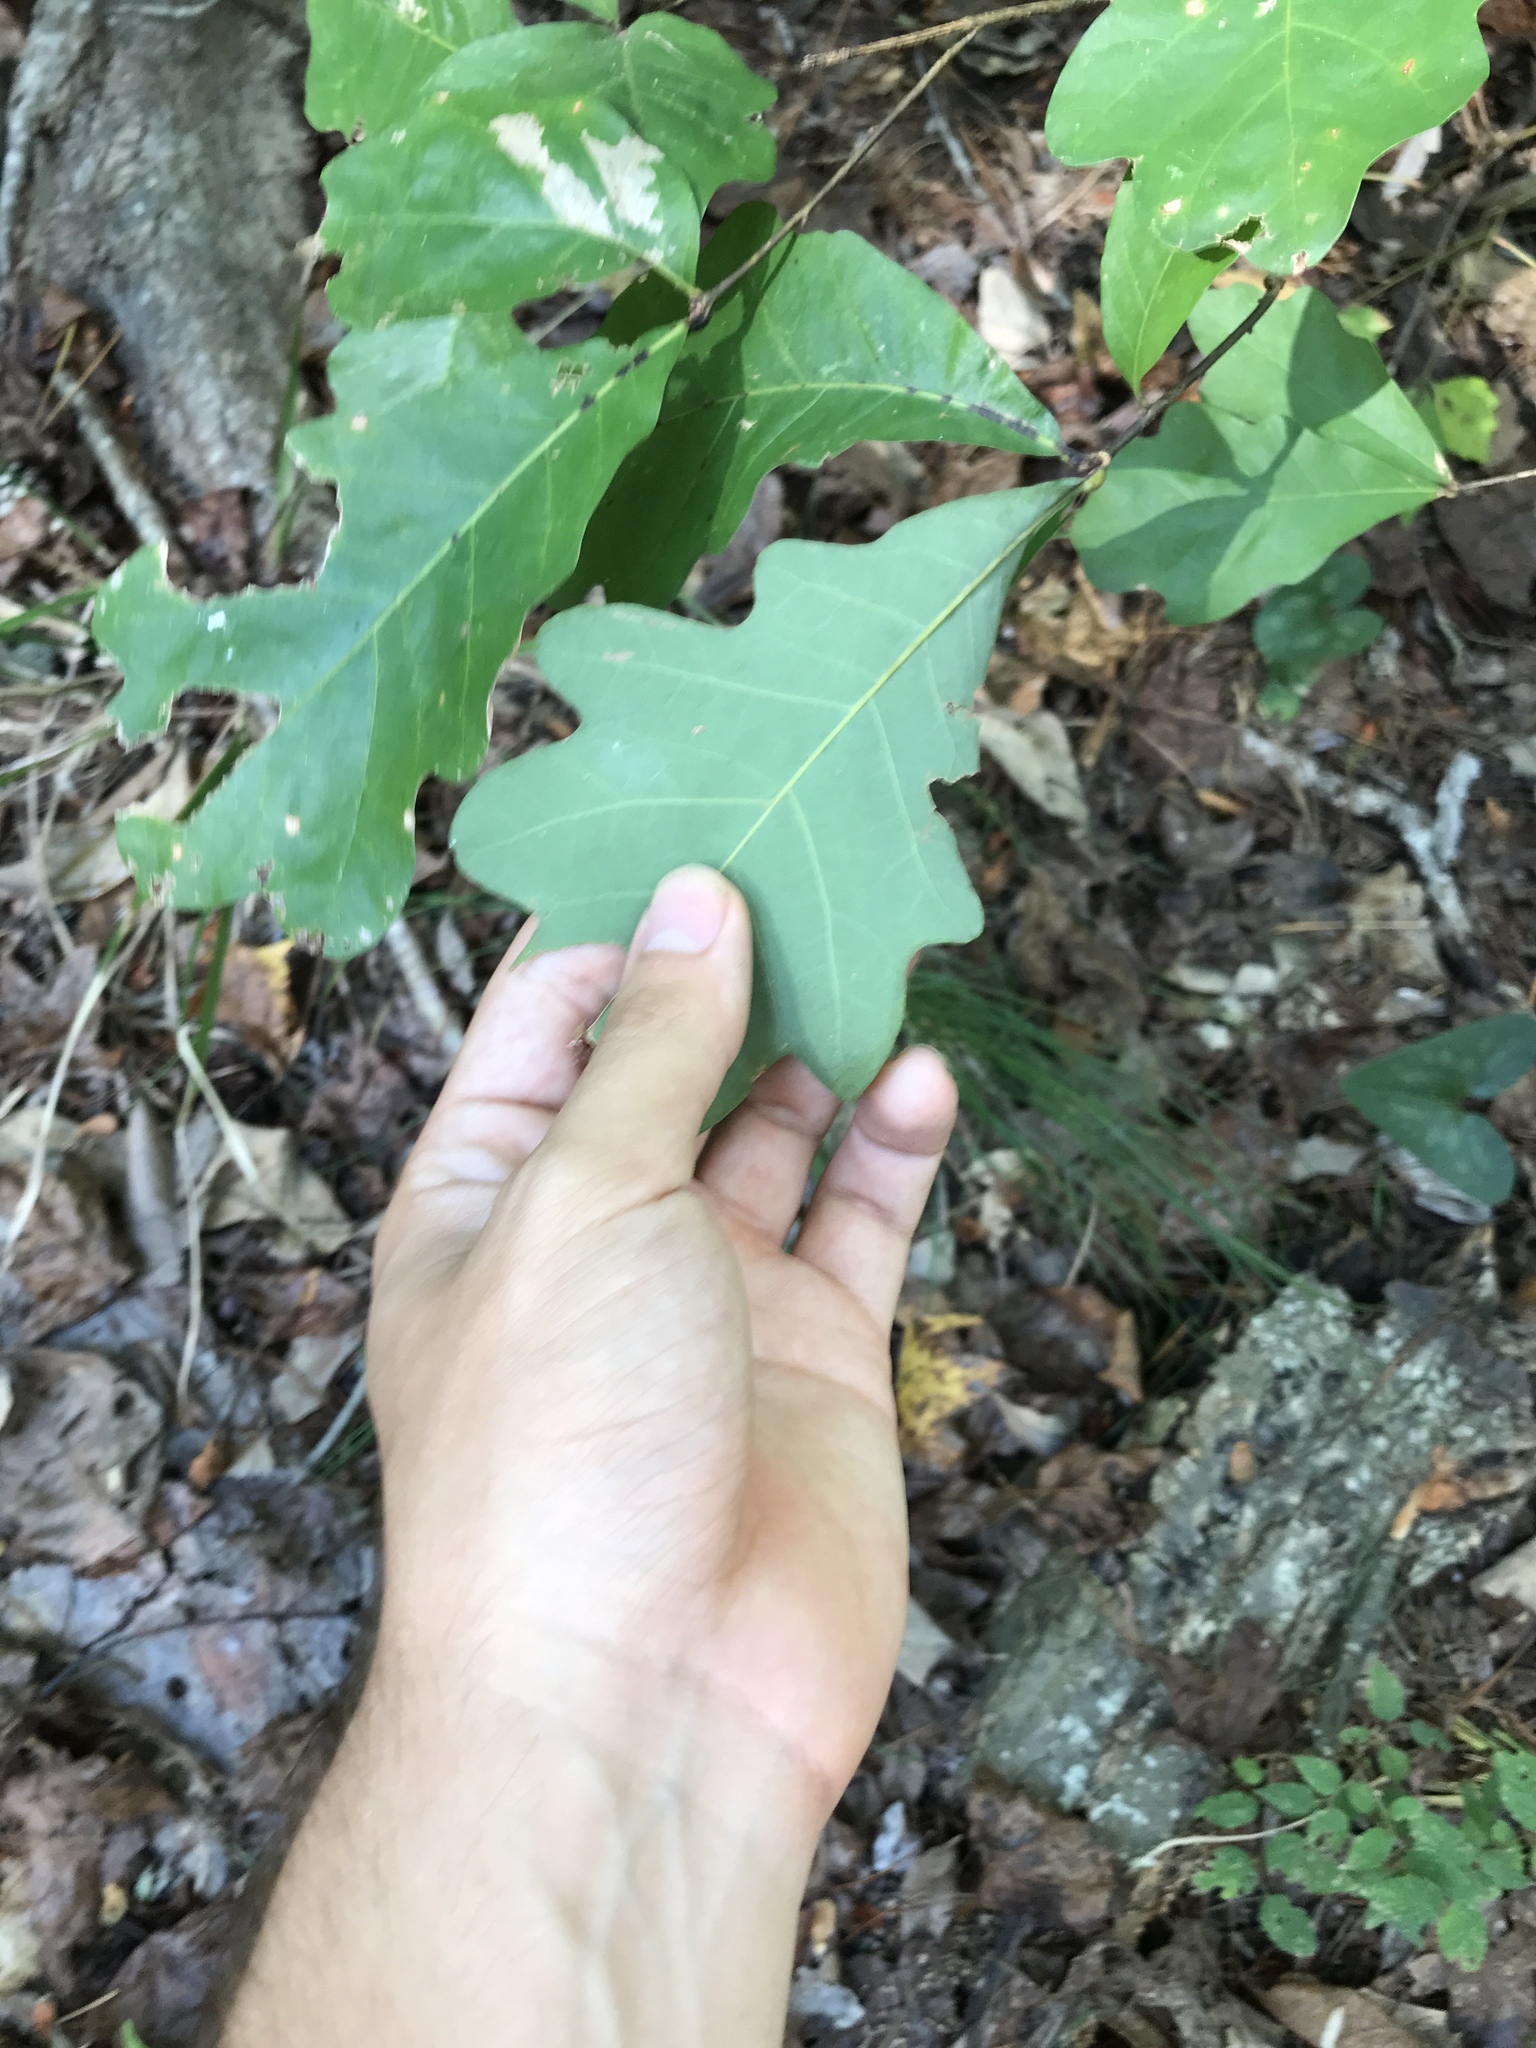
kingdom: Plantae
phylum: Tracheophyta
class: Magnoliopsida
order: Fagales
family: Fagaceae
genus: Quercus
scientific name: Quercus alba
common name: White oak
